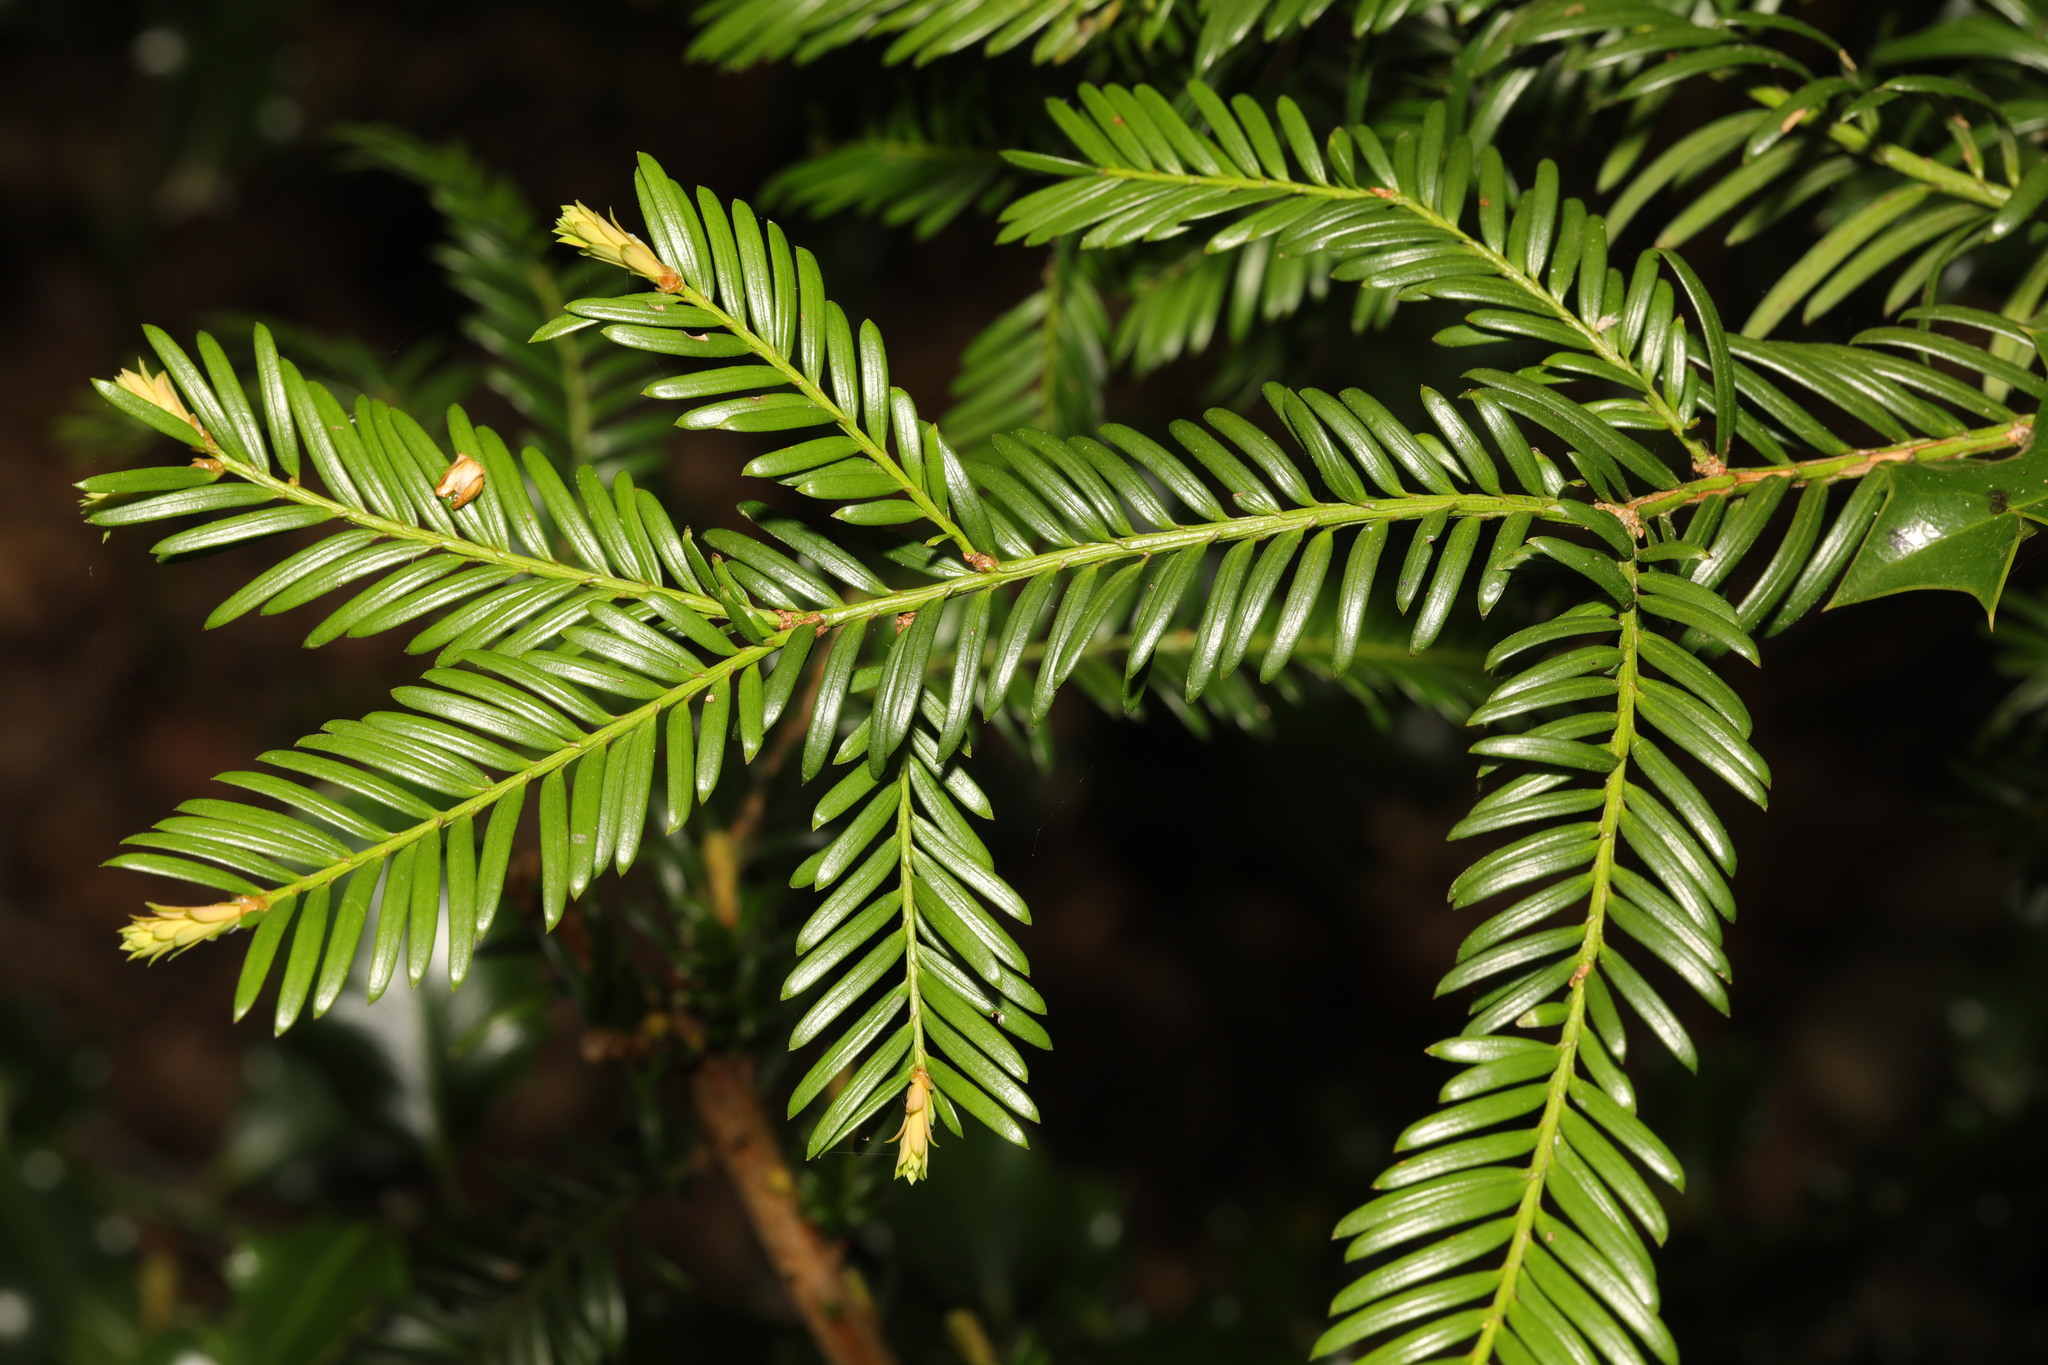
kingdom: Plantae
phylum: Tracheophyta
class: Pinopsida
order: Pinales
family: Taxaceae
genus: Taxus
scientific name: Taxus baccata
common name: Yew
